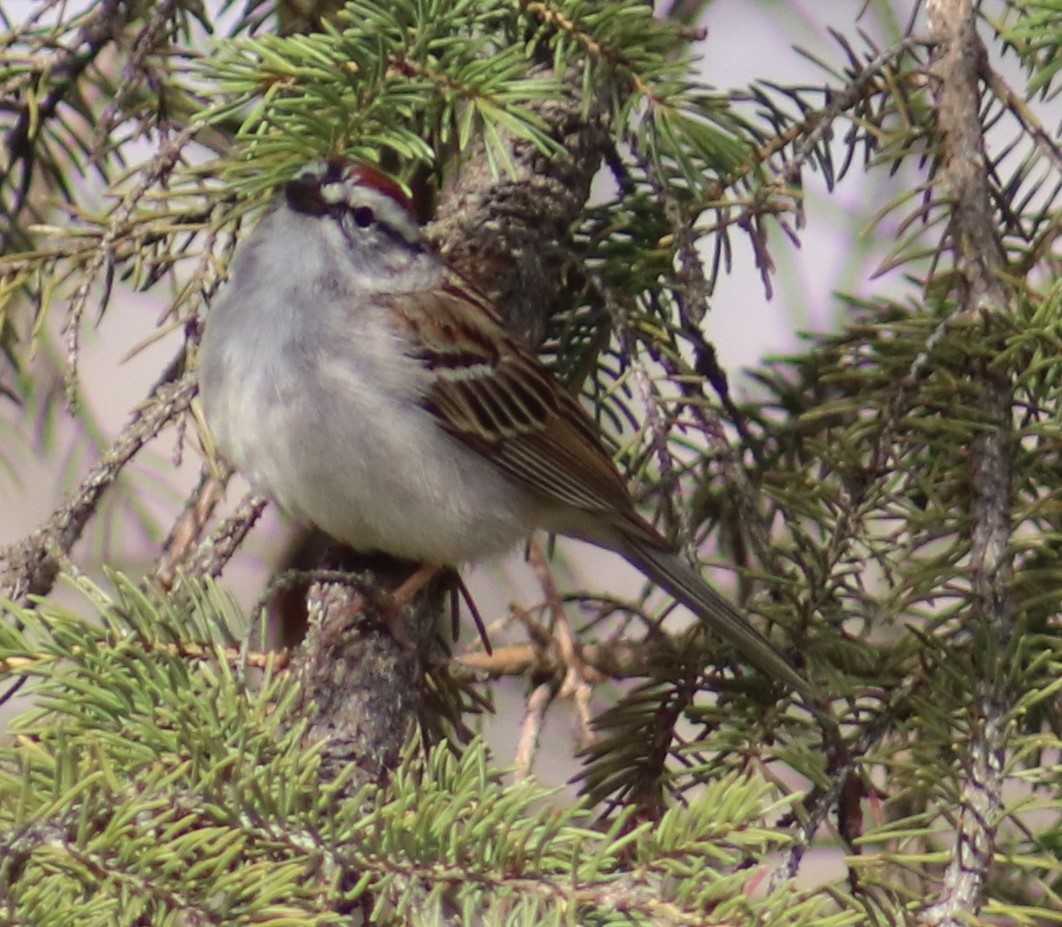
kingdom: Animalia
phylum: Chordata
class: Aves
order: Passeriformes
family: Passerellidae
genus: Spizella
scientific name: Spizella passerina
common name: Chipping sparrow
